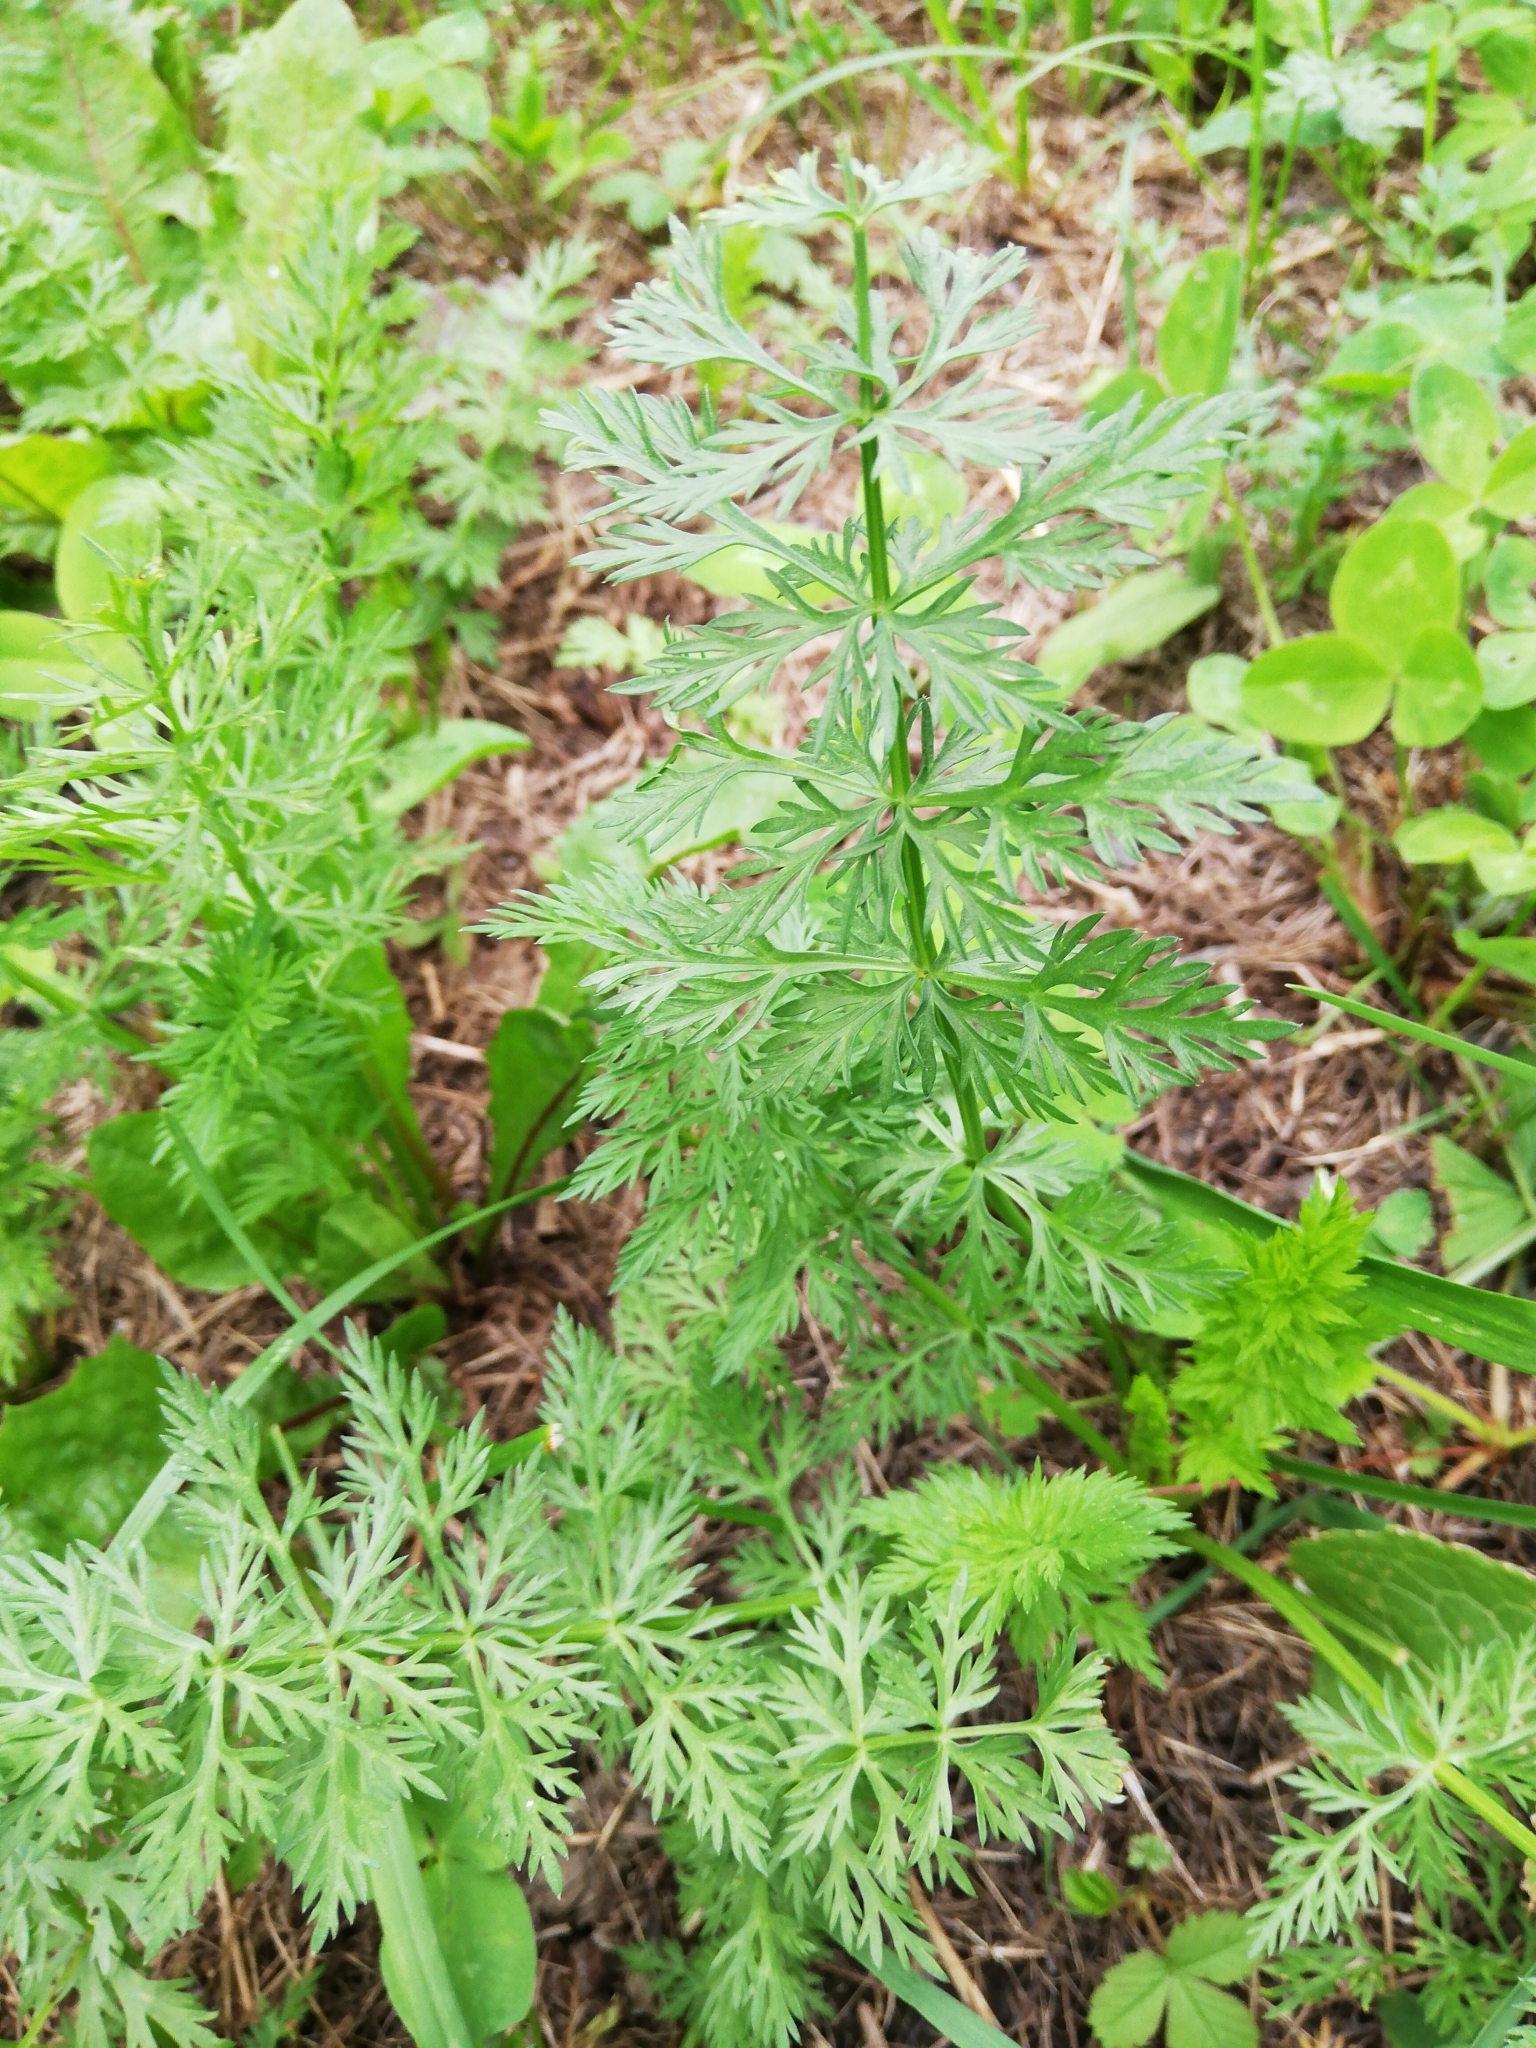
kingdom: Plantae
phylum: Tracheophyta
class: Magnoliopsida
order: Apiales
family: Apiaceae
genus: Carum
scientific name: Carum carvi
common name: Caraway
